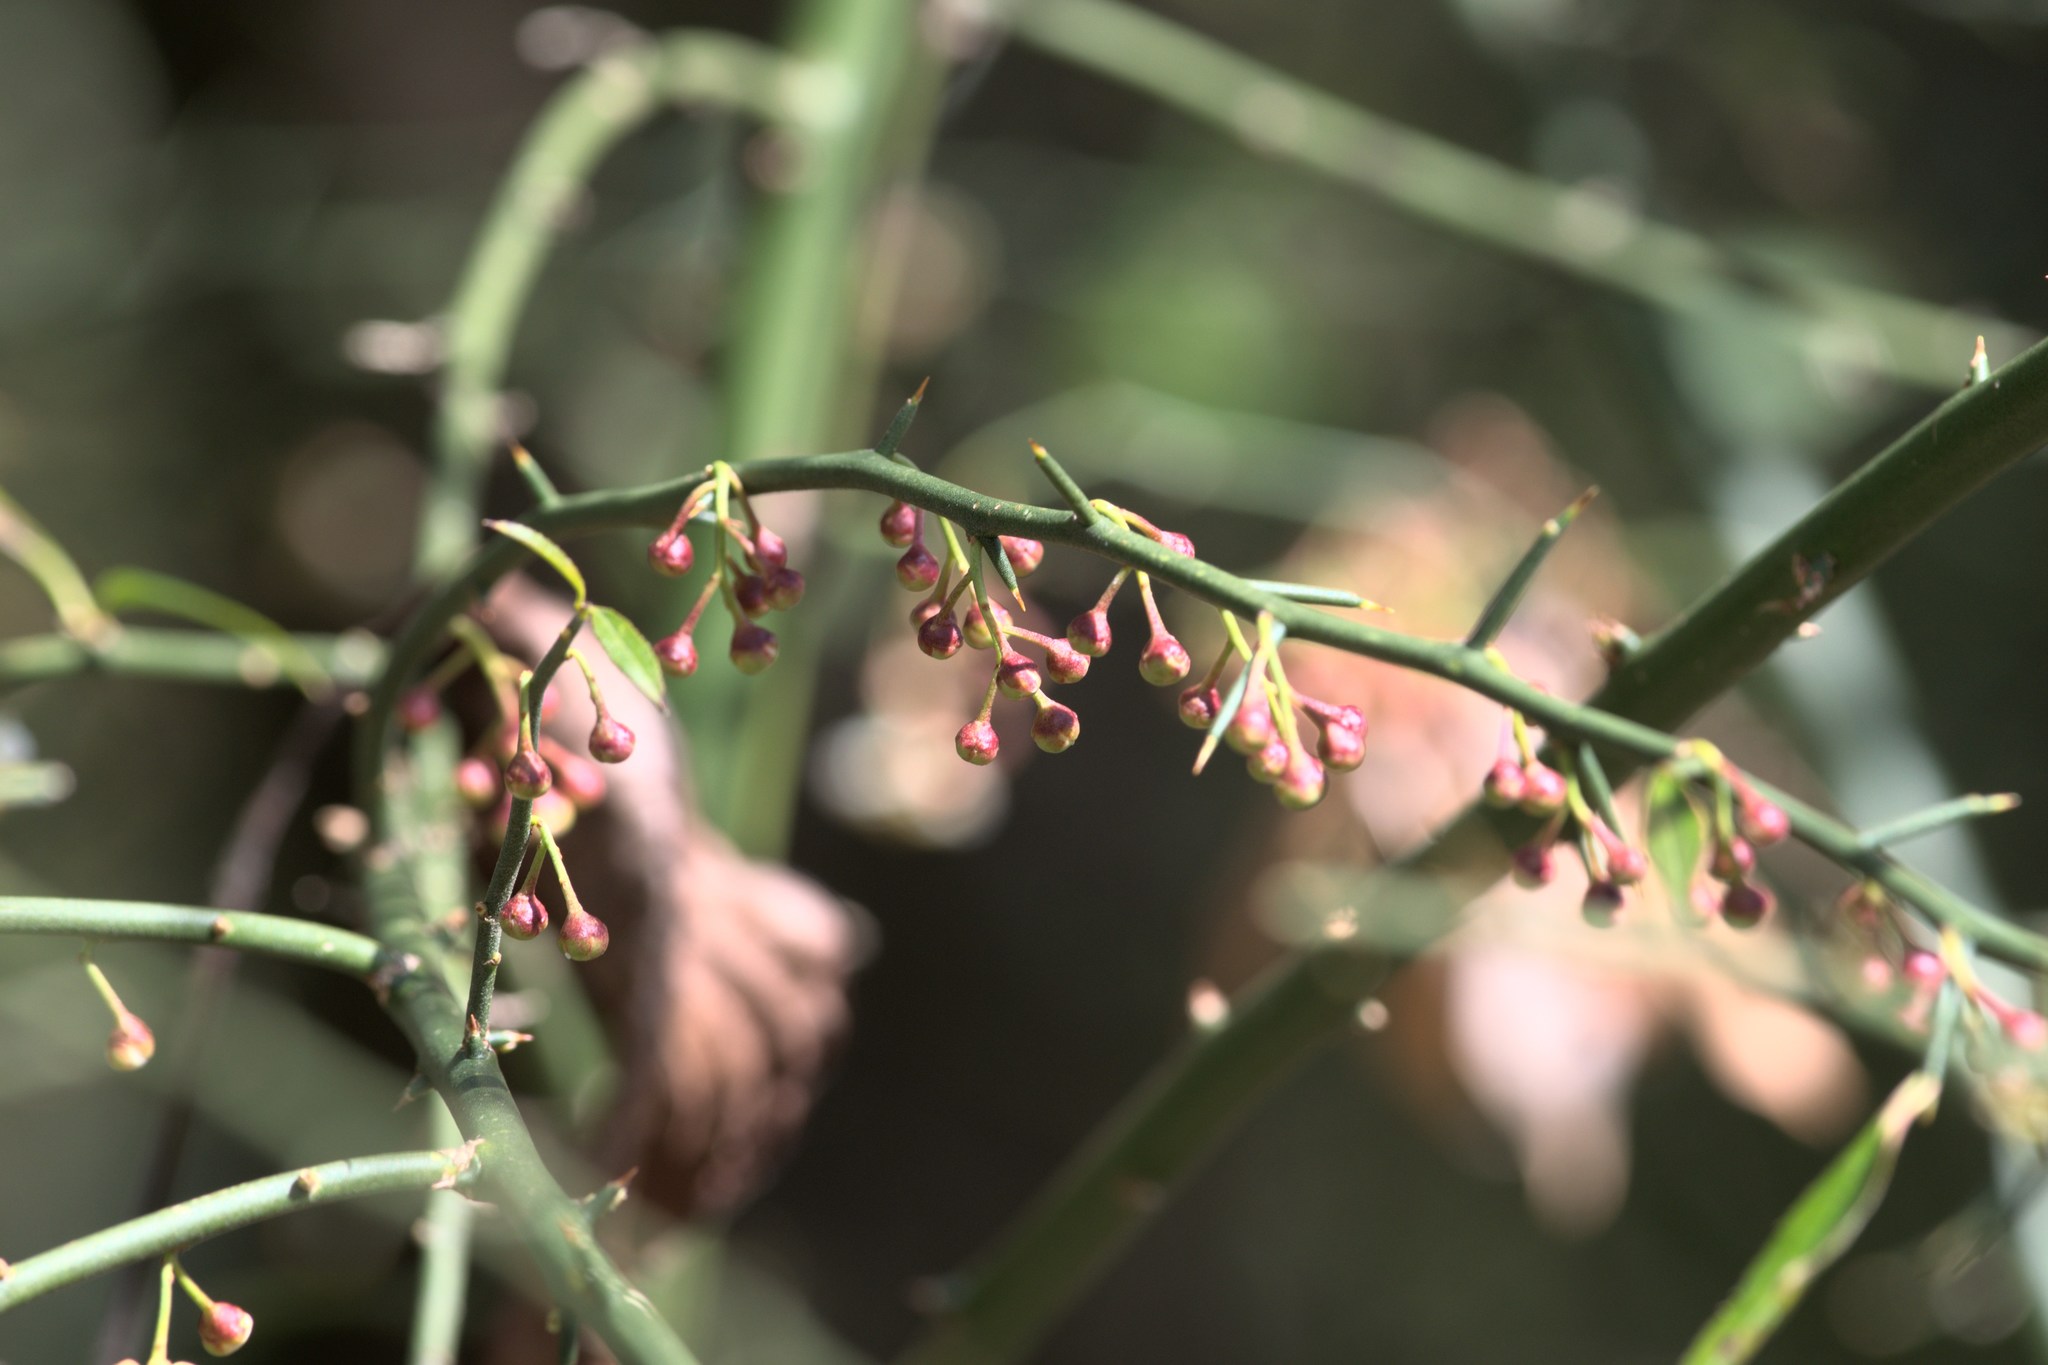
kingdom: Plantae
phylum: Tracheophyta
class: Magnoliopsida
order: Rosales
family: Rosaceae
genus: Prinsepia
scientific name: Prinsepia utilis
